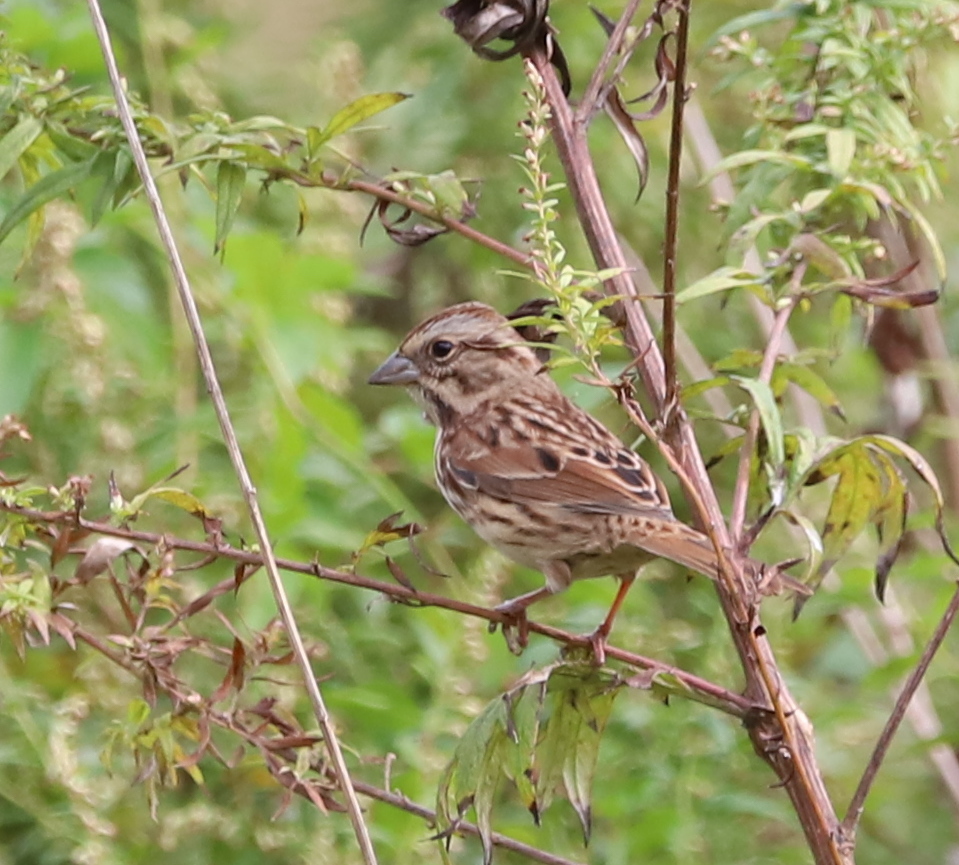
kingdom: Animalia
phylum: Chordata
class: Aves
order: Passeriformes
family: Passerellidae
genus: Melospiza
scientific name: Melospiza melodia
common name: Song sparrow
